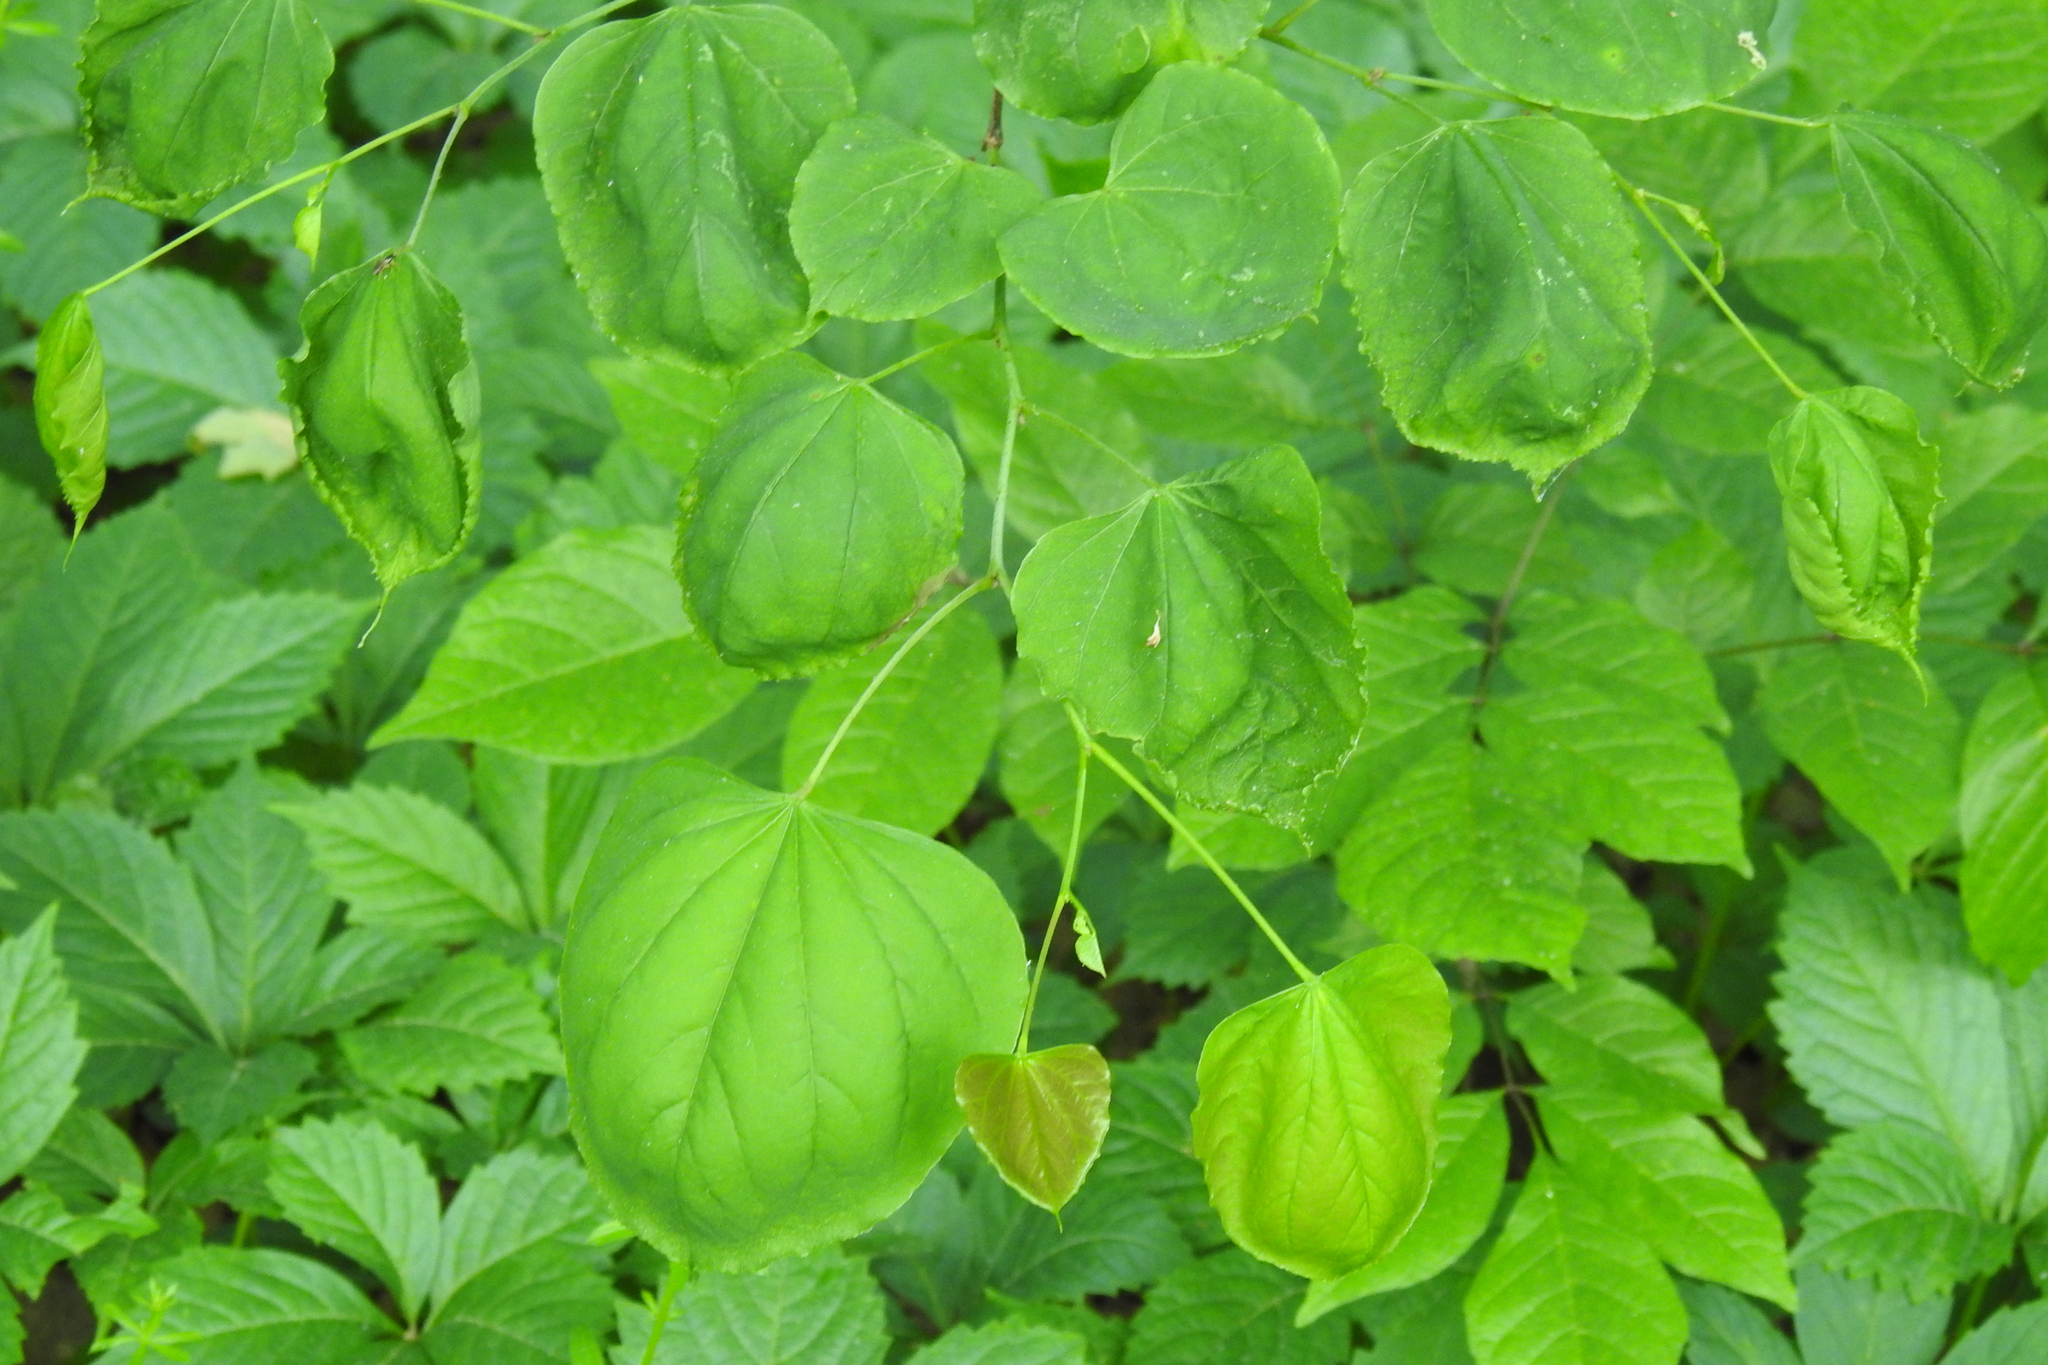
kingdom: Plantae
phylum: Tracheophyta
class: Magnoliopsida
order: Fabales
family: Fabaceae
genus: Cercis
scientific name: Cercis canadensis
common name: Eastern redbud
